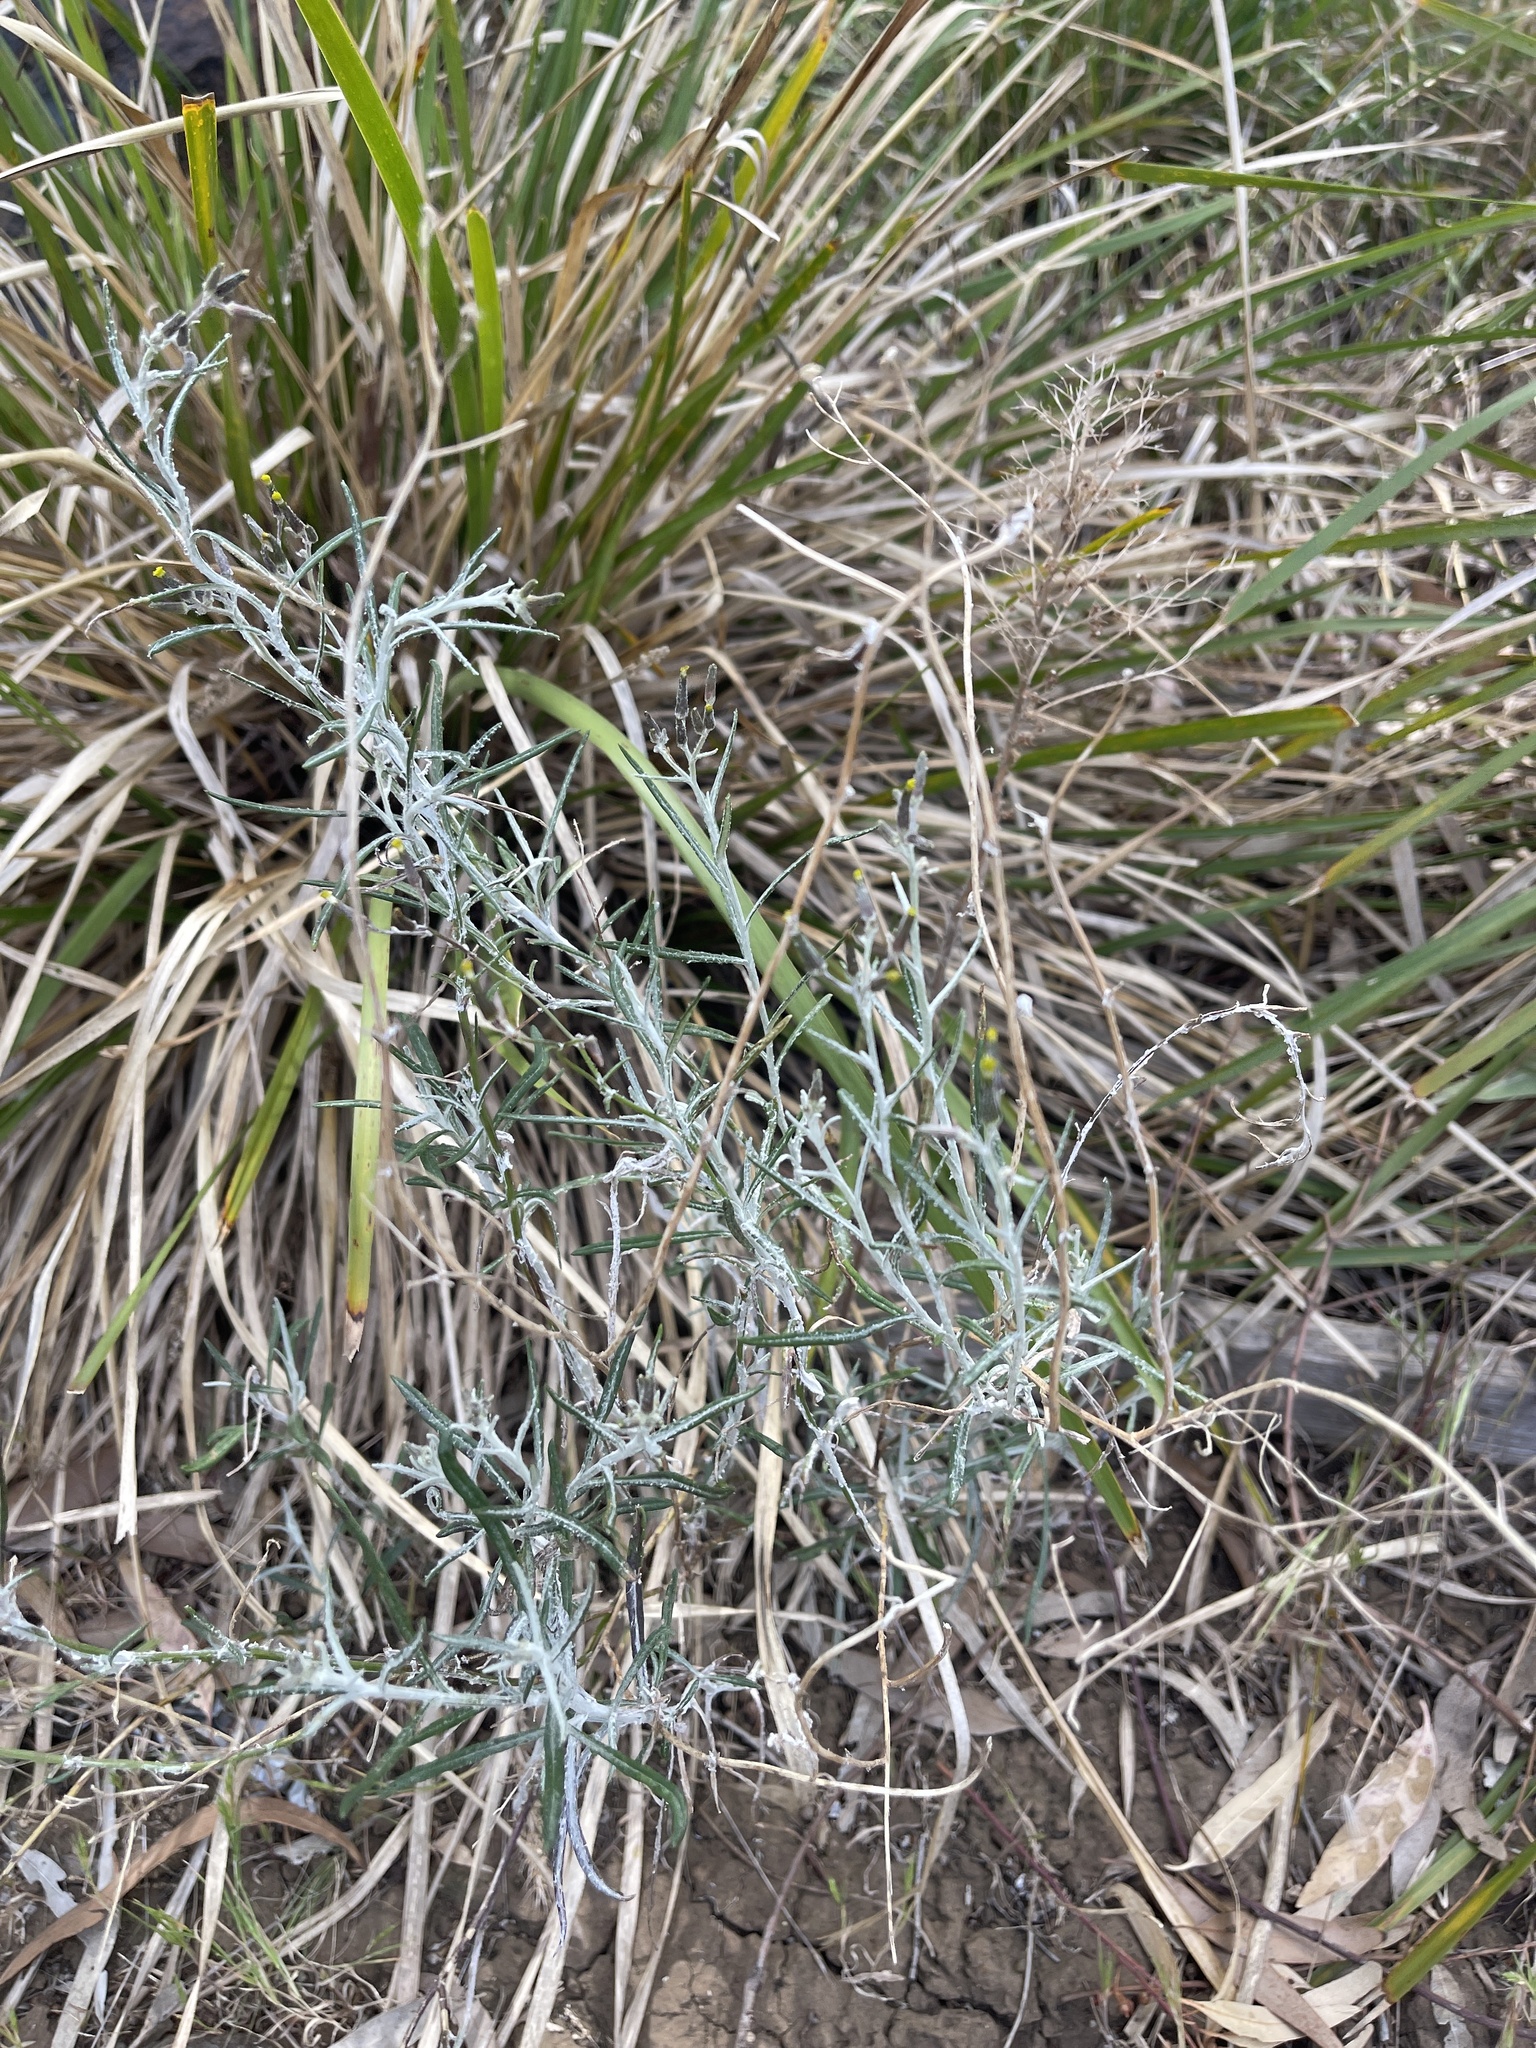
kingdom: Plantae
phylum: Tracheophyta
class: Magnoliopsida
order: Asterales
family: Asteraceae
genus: Senecio
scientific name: Senecio quadridentatus
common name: Cotton fireweed
